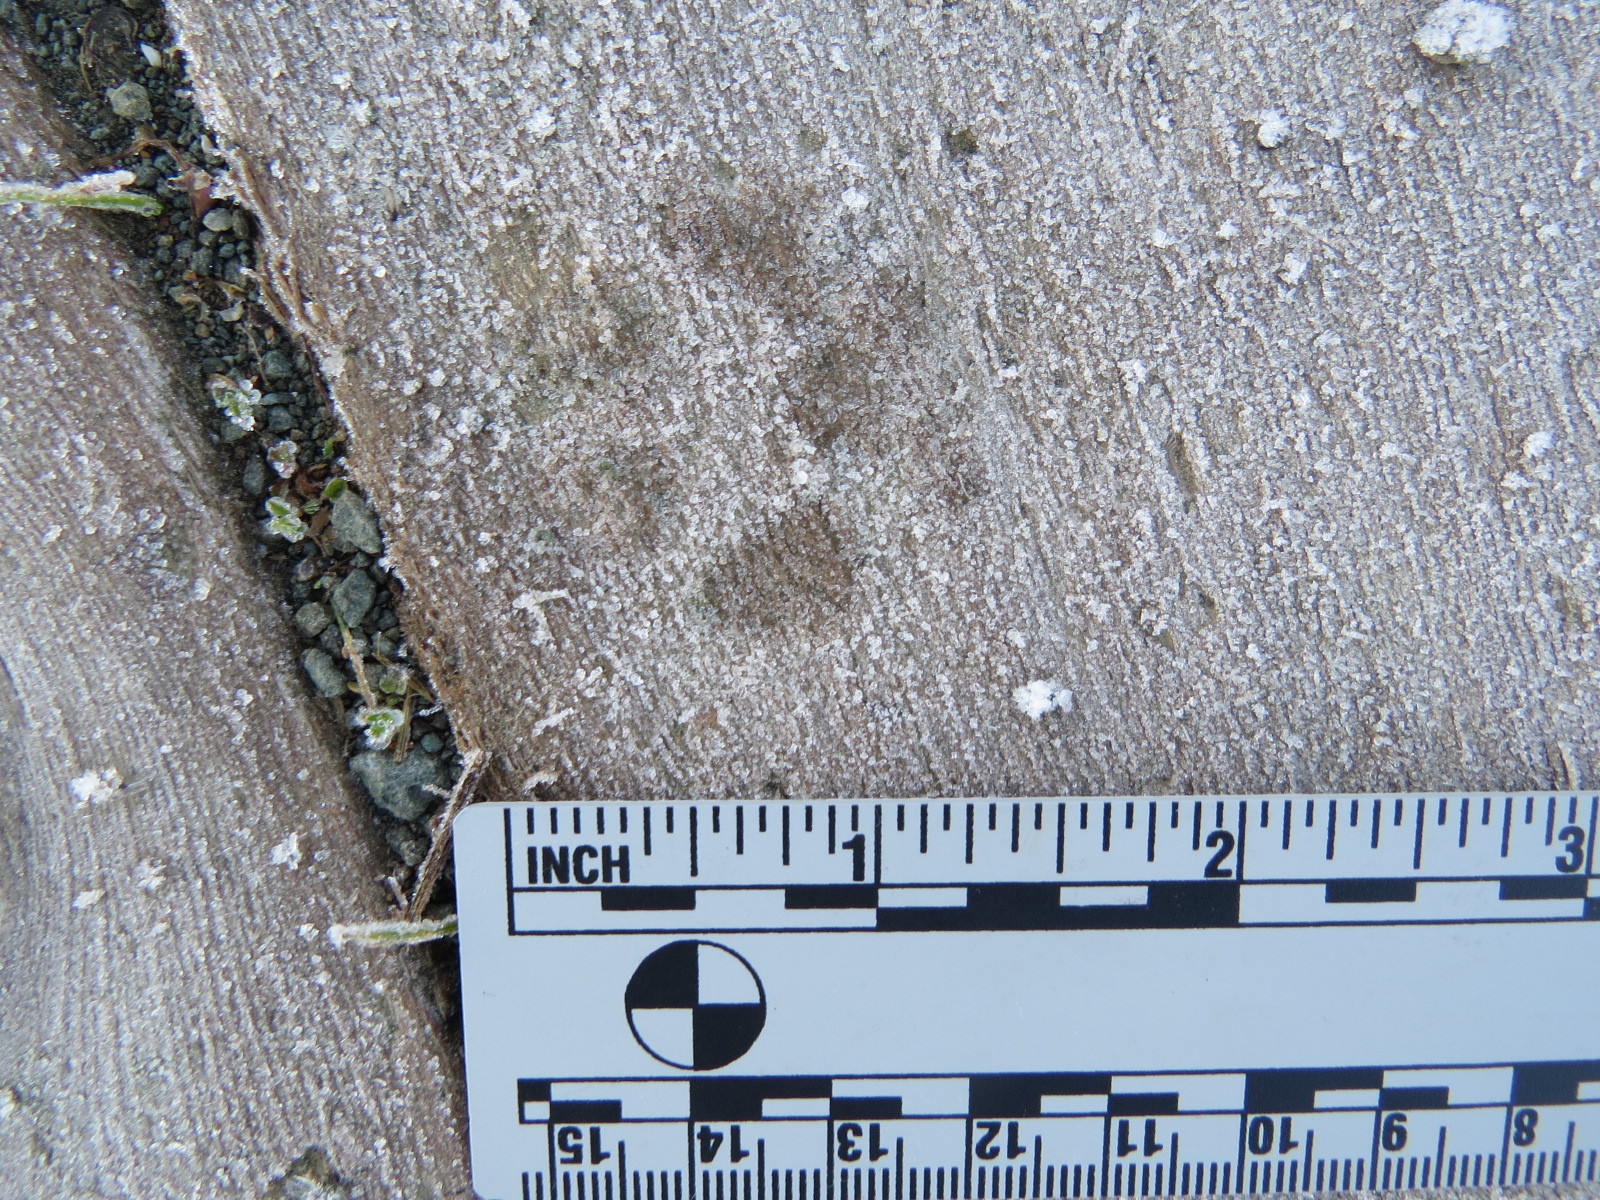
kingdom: Animalia
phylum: Chordata
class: Mammalia
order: Carnivora
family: Canidae
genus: Urocyon
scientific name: Urocyon cinereoargenteus
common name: Gray fox
